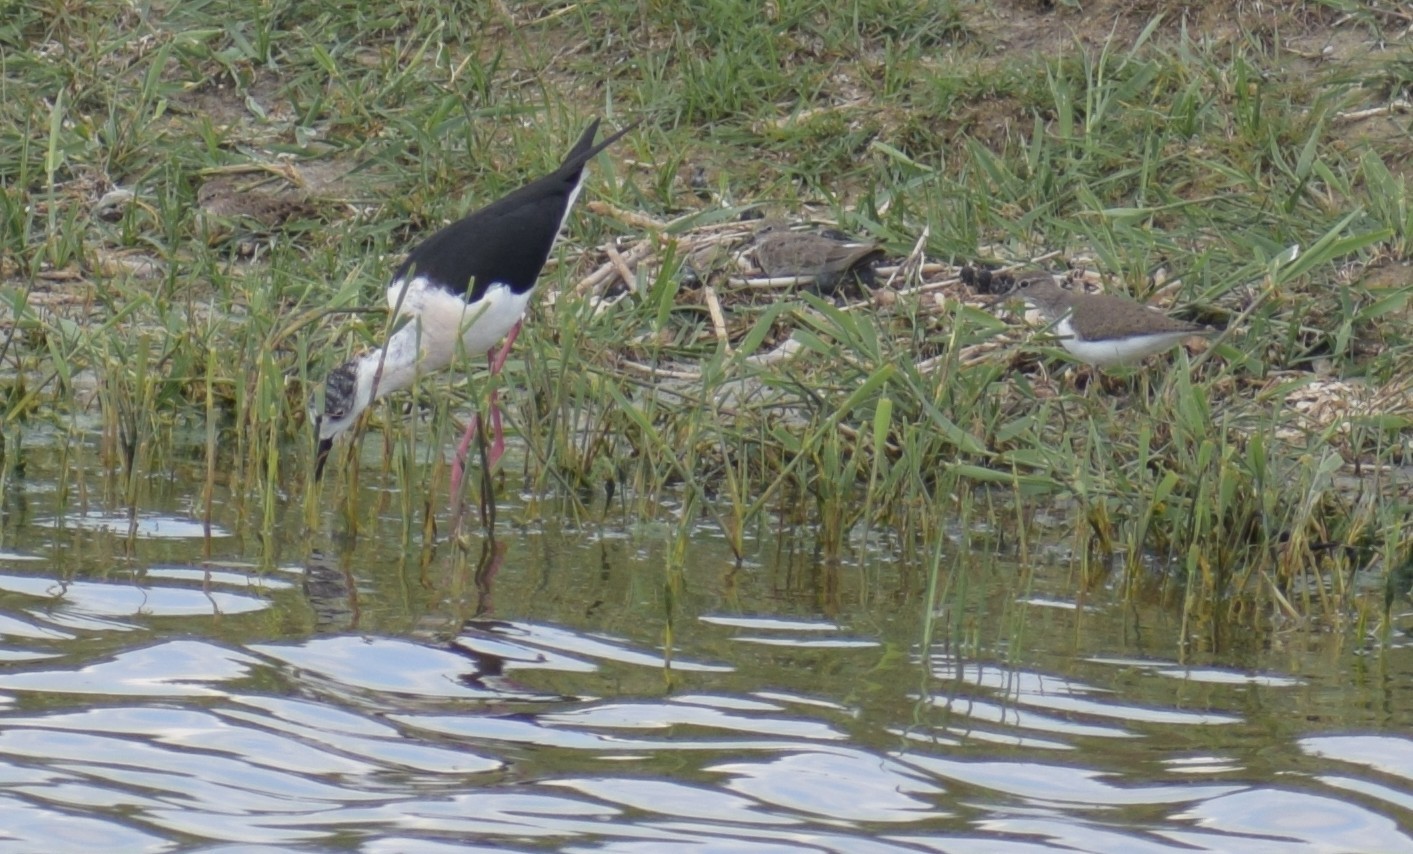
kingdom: Animalia
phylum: Chordata
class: Aves
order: Charadriiformes
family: Recurvirostridae
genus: Himantopus
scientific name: Himantopus himantopus
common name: Black-winged stilt
